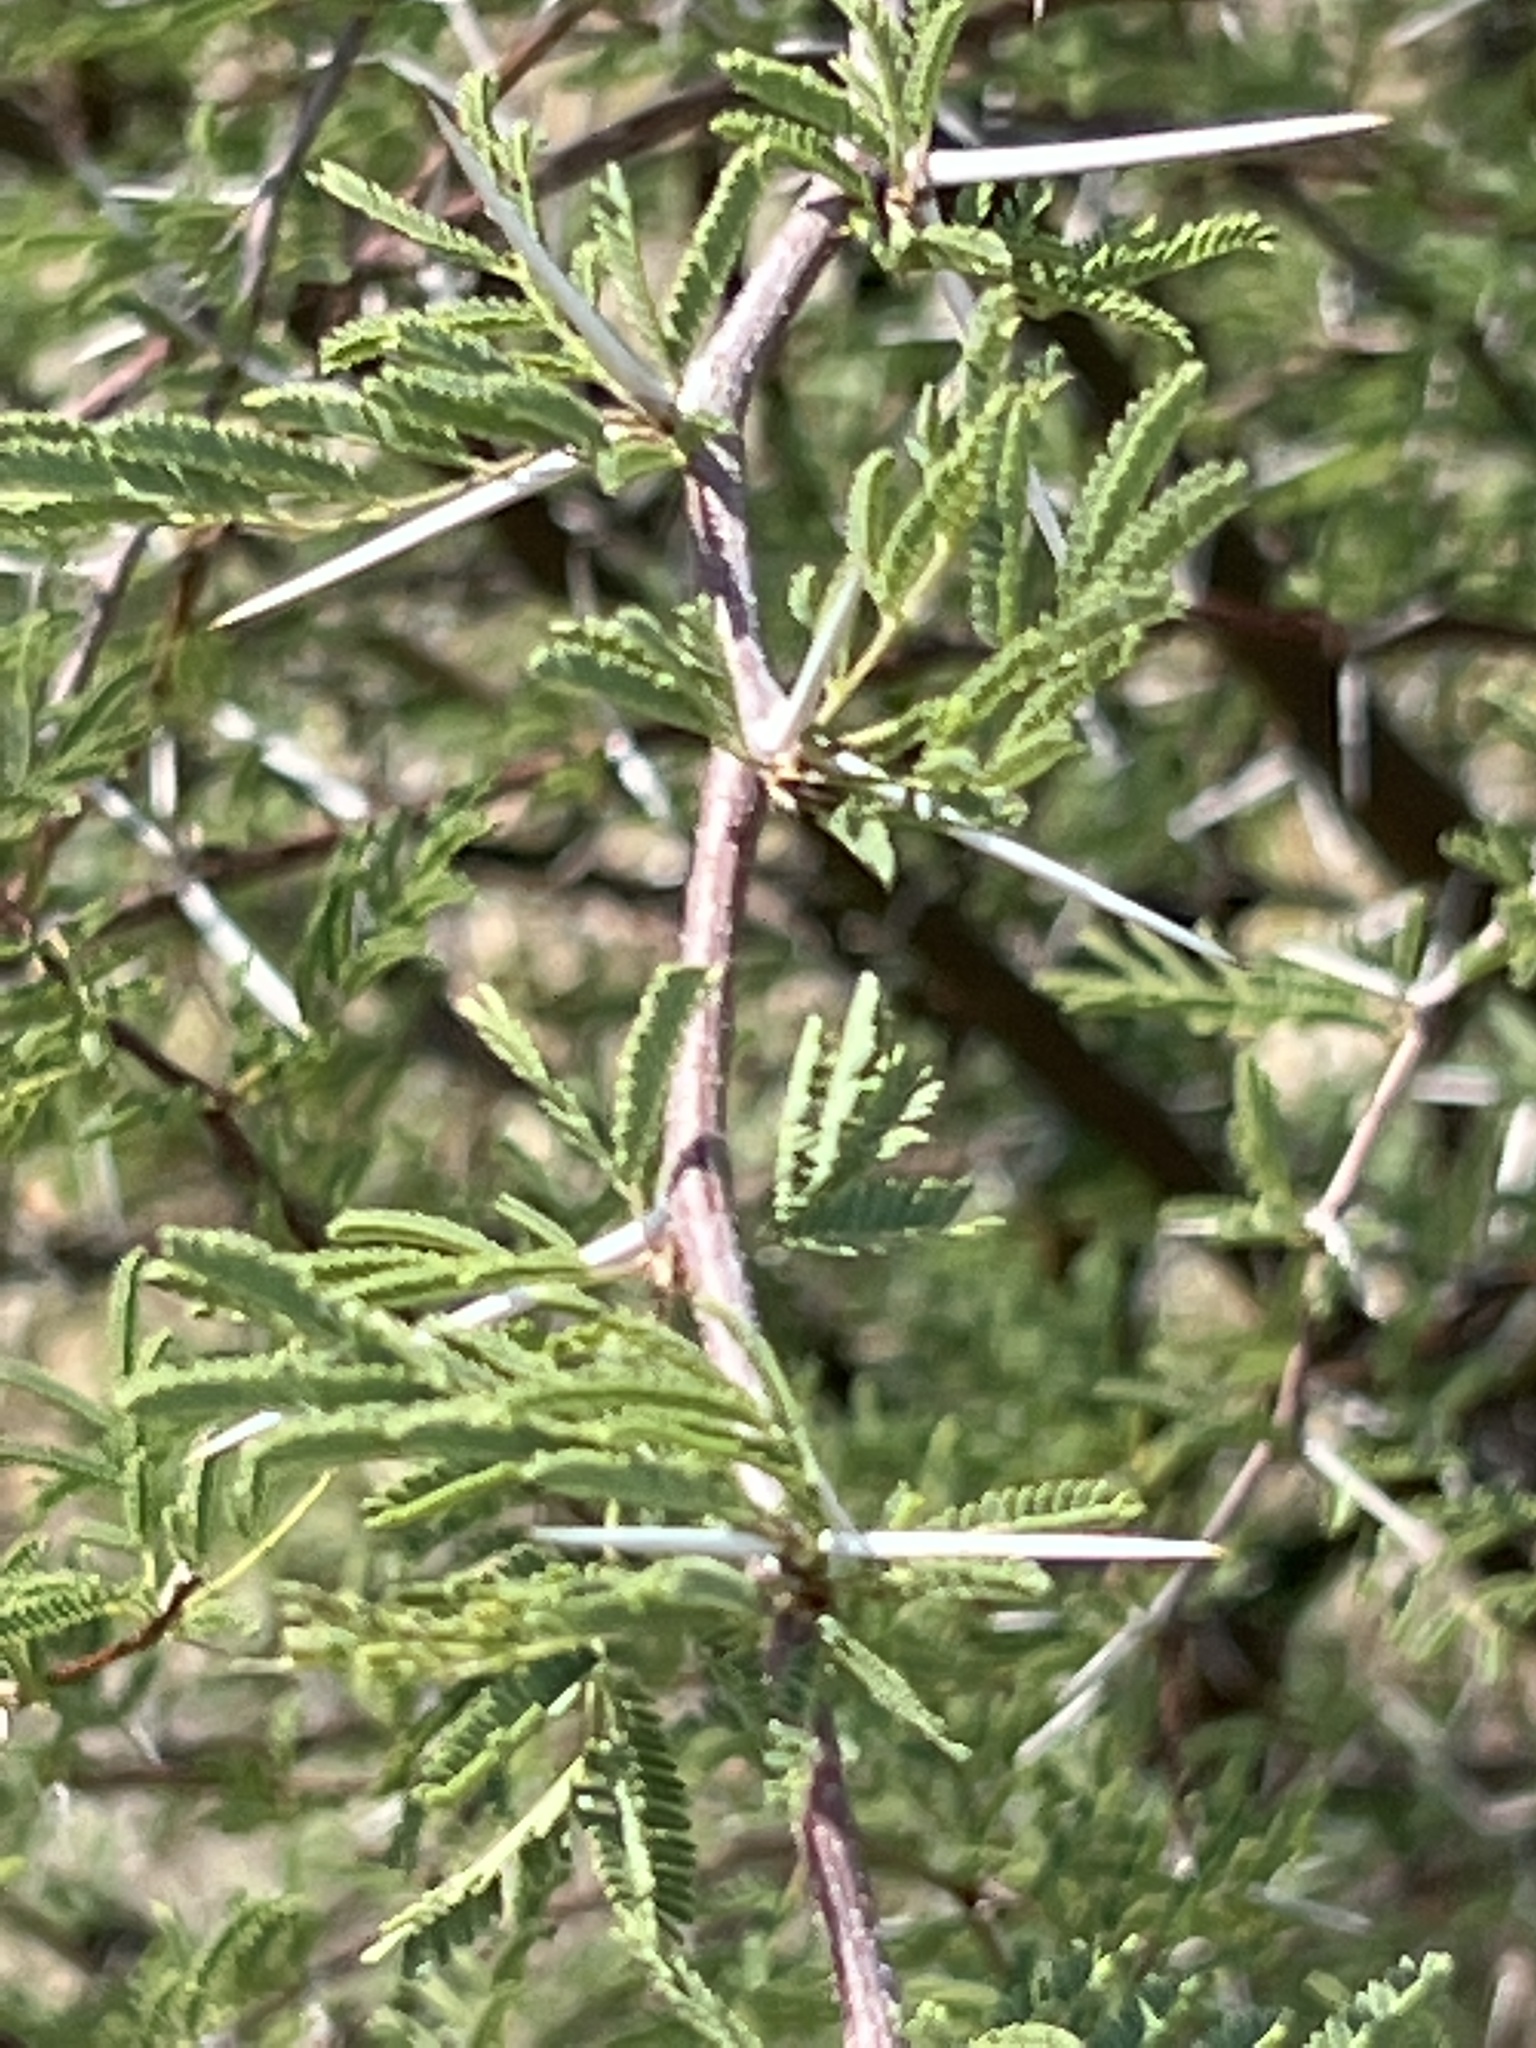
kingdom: Plantae
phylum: Tracheophyta
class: Magnoliopsida
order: Fabales
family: Fabaceae
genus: Vachellia
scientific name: Vachellia farnesiana
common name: Sweet acacia
